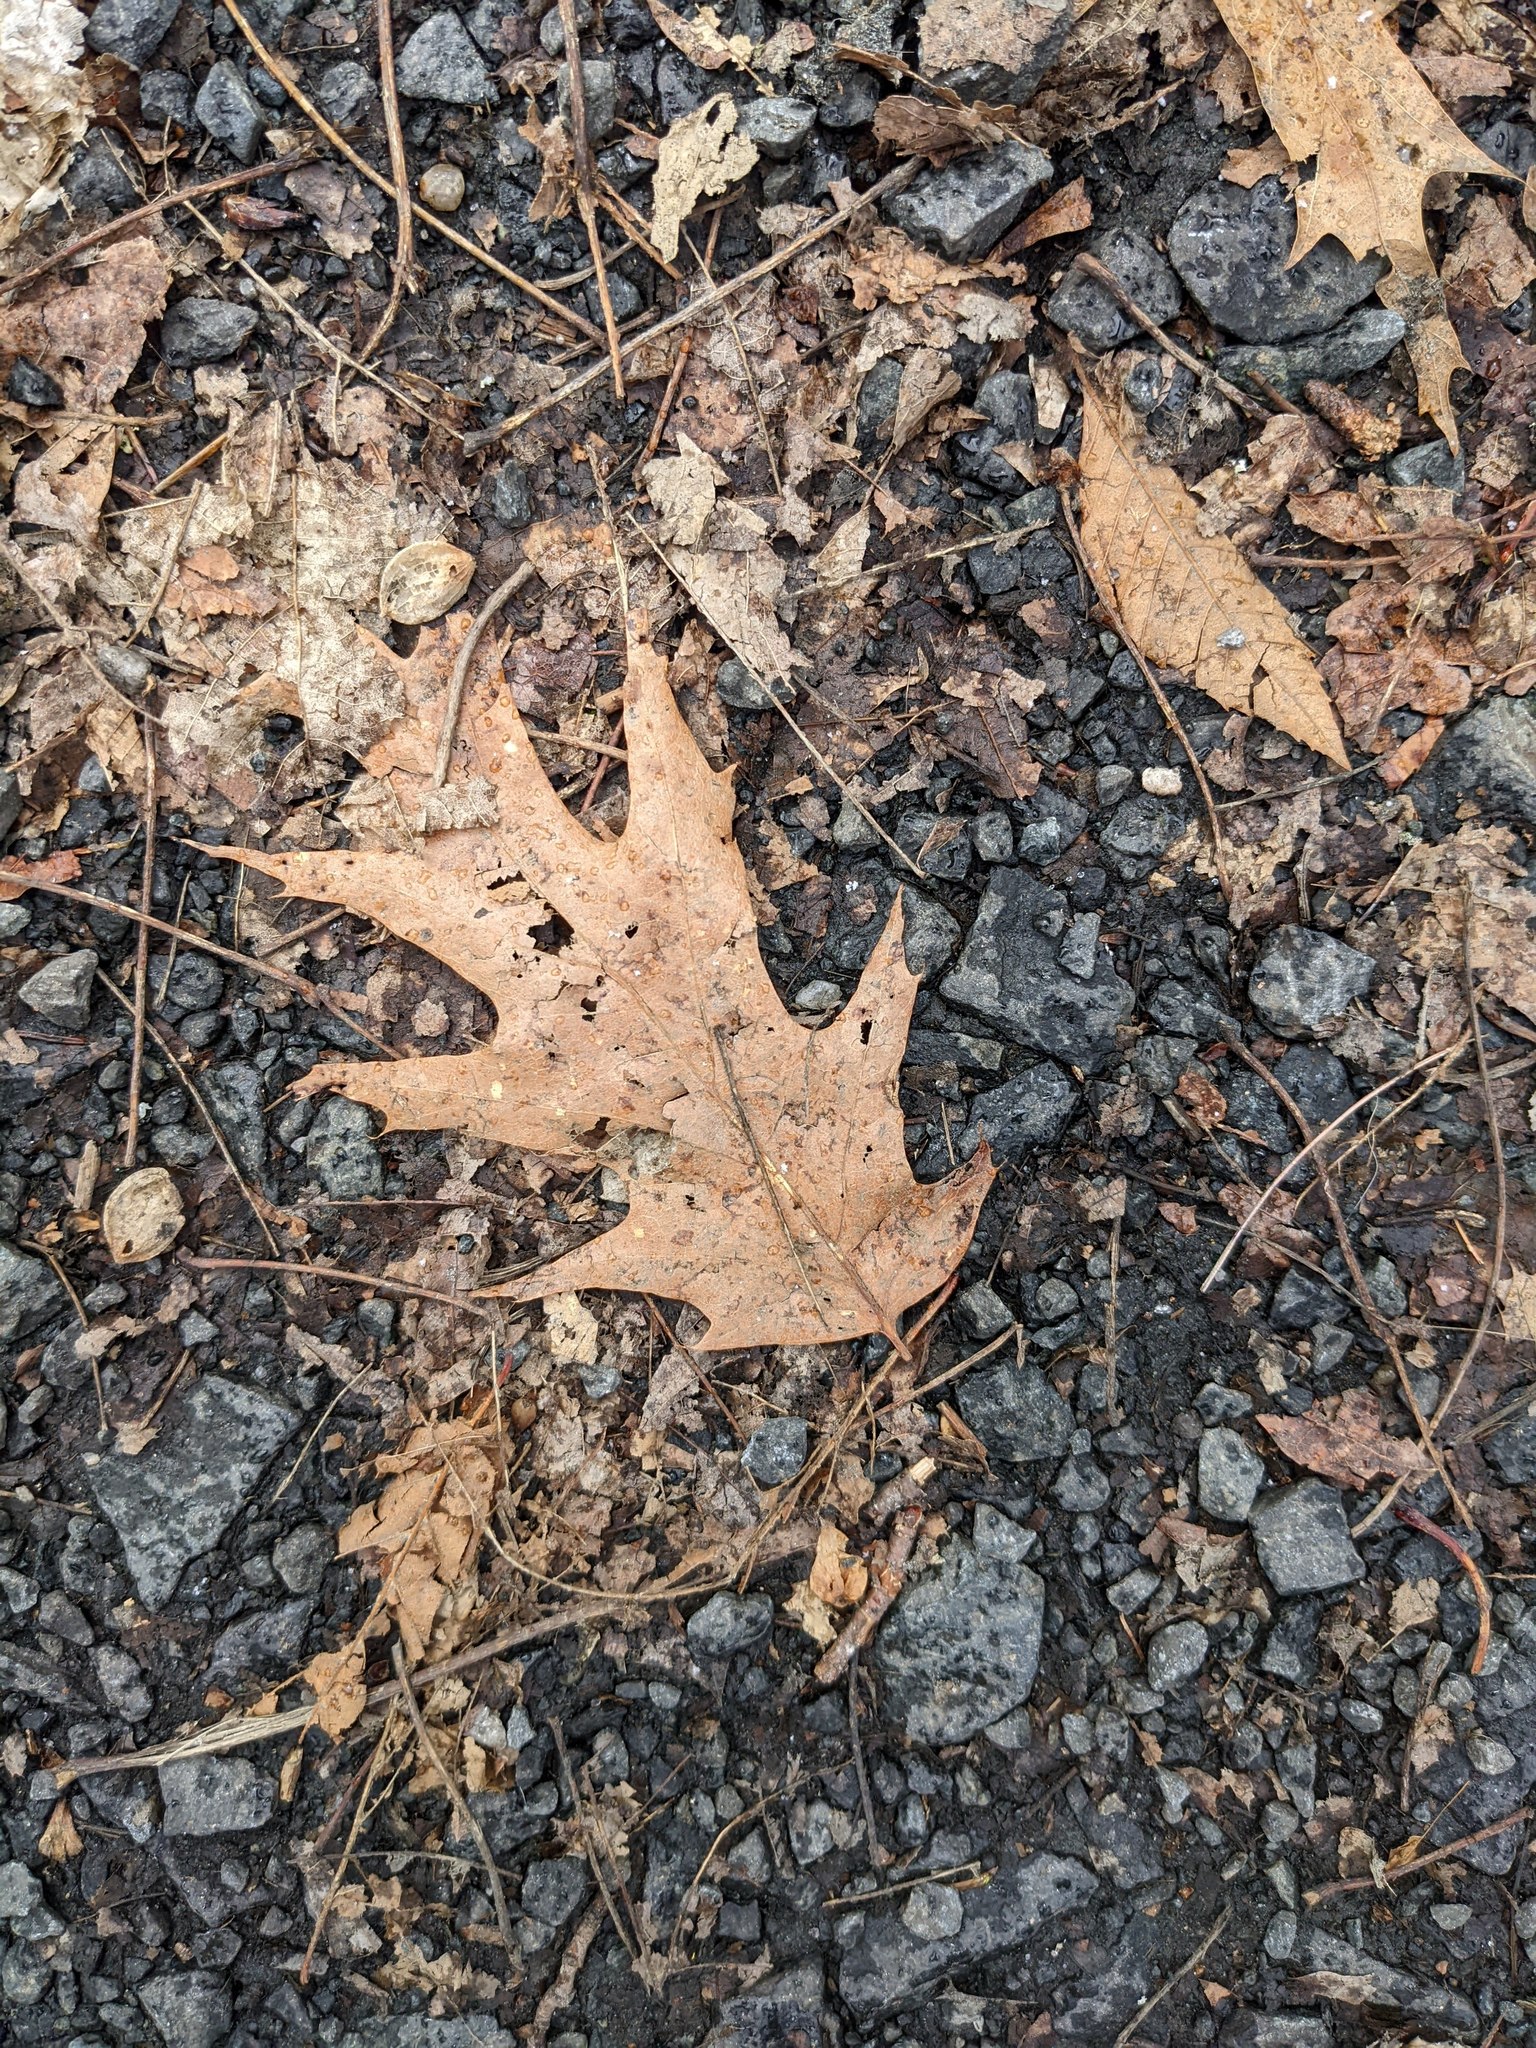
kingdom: Plantae
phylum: Tracheophyta
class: Magnoliopsida
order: Fagales
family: Fagaceae
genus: Quercus
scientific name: Quercus rubra
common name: Red oak
